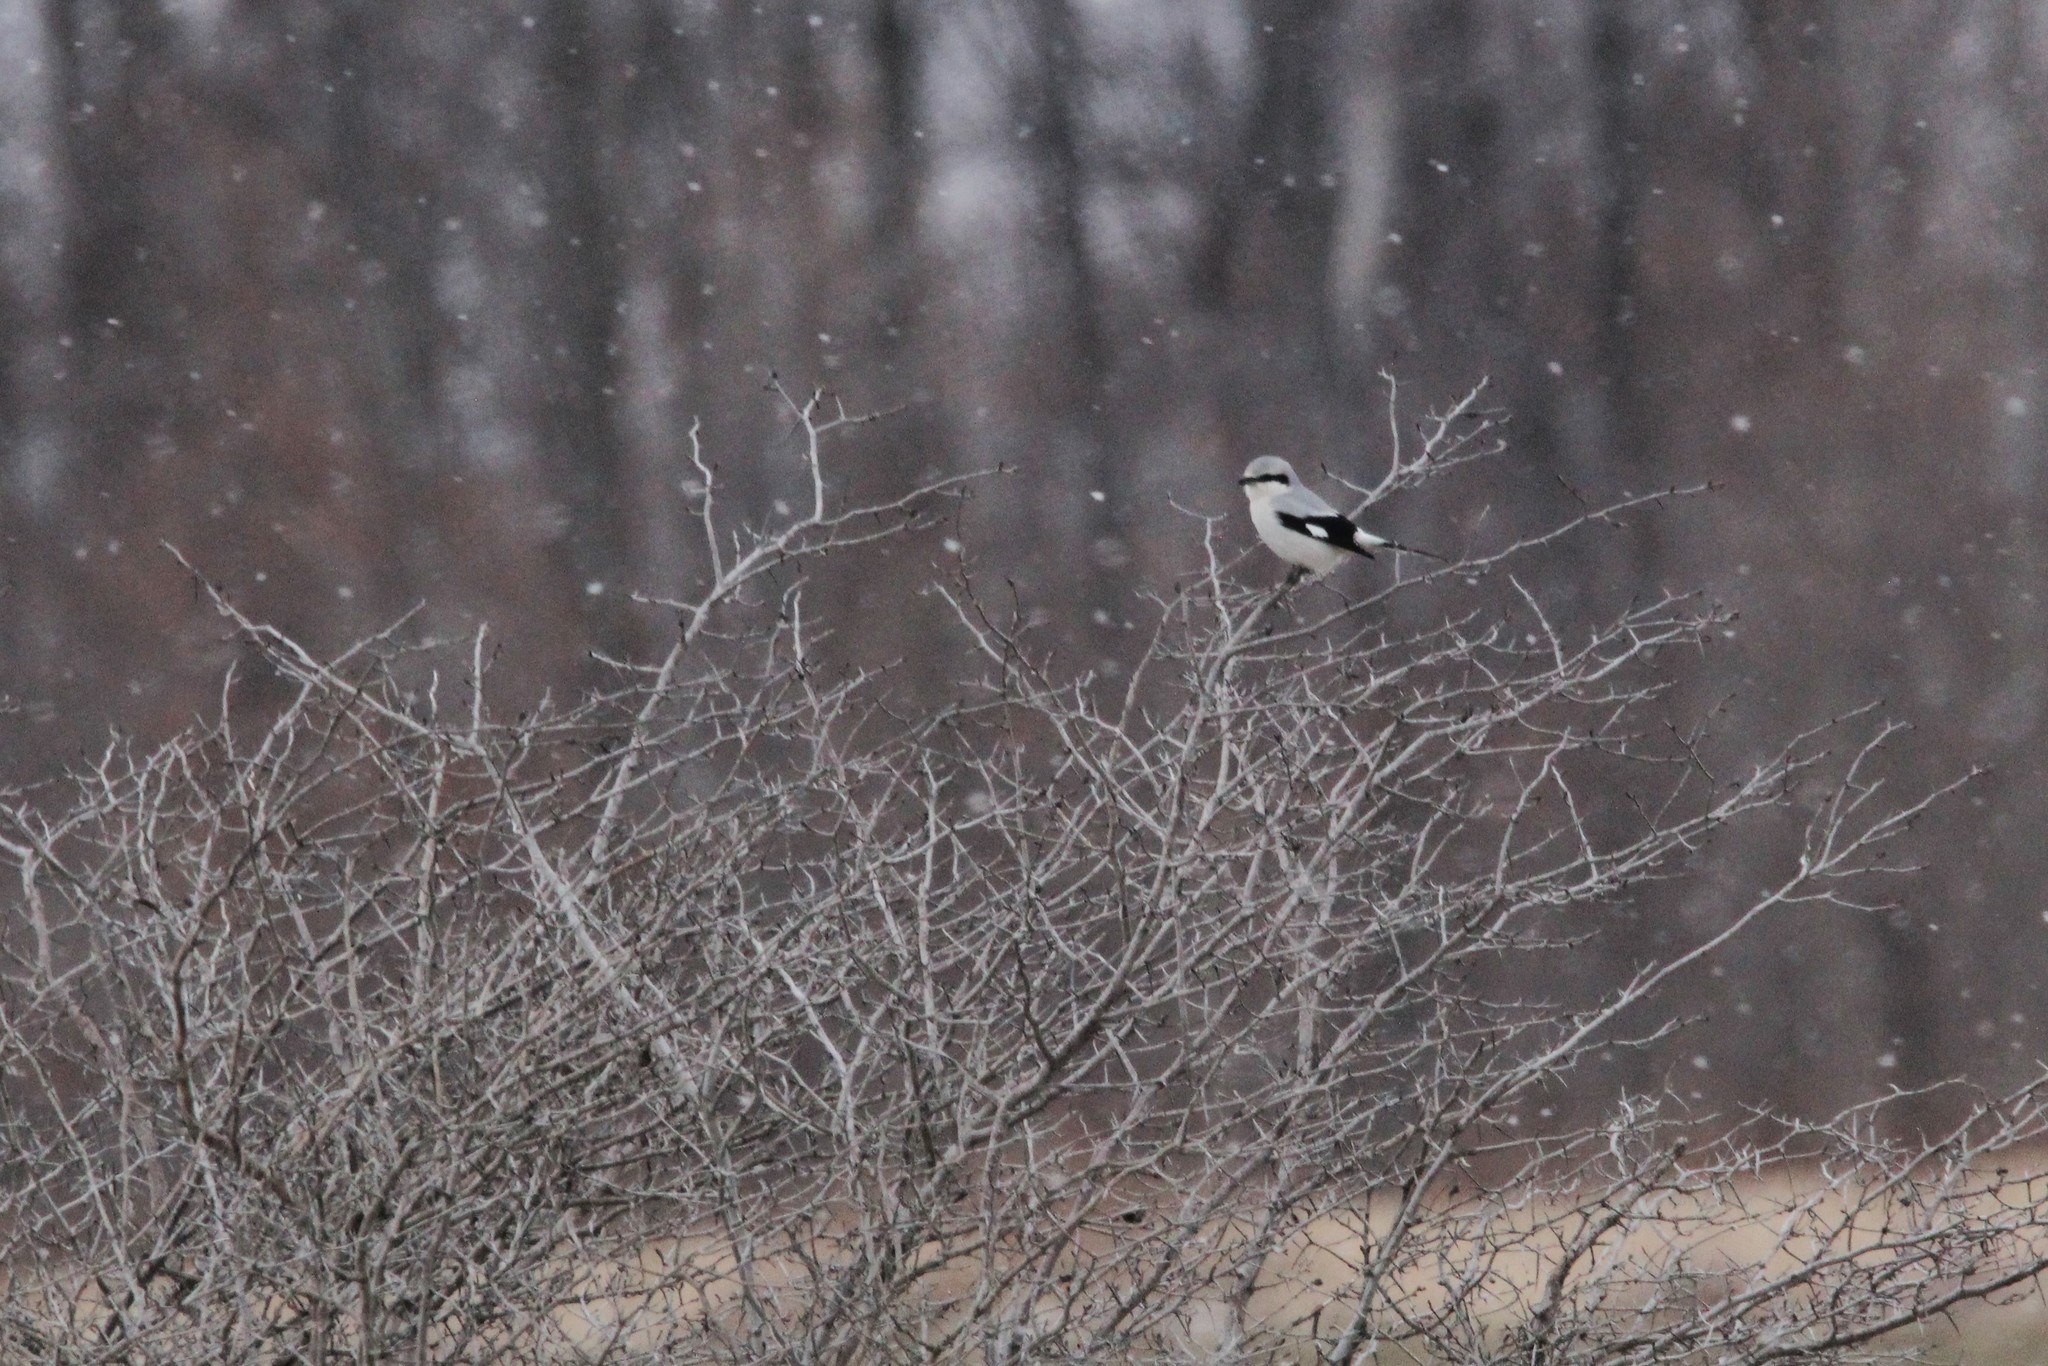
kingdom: Animalia
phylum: Chordata
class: Aves
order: Passeriformes
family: Laniidae
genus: Lanius
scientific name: Lanius borealis
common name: Northern shrike
